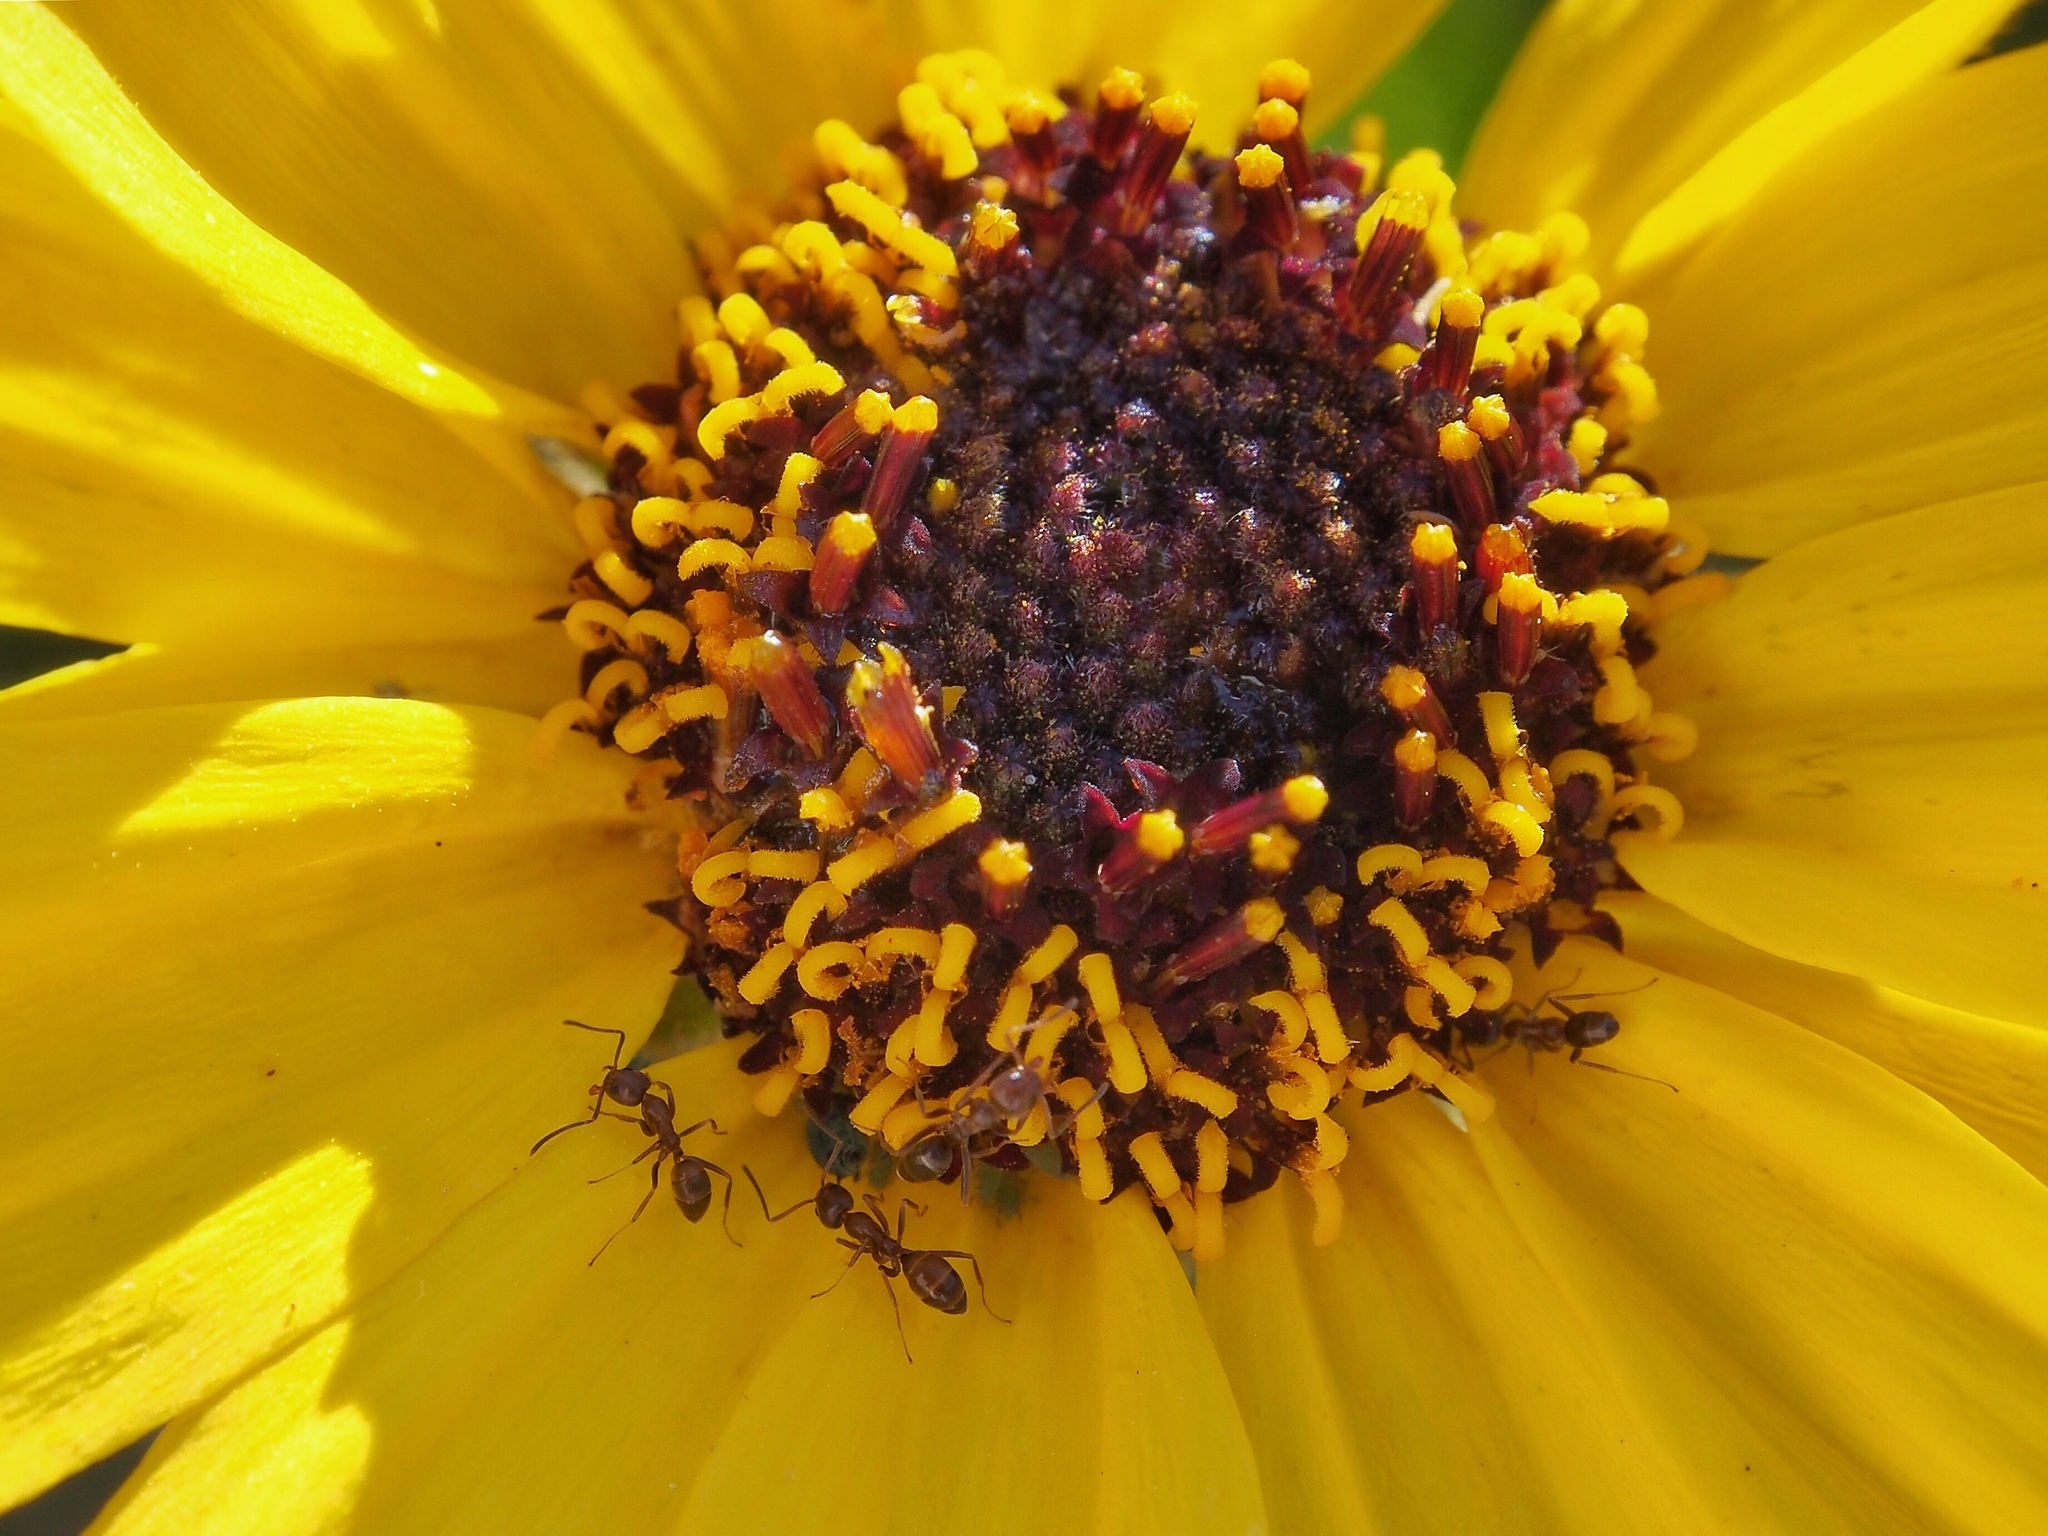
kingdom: Animalia
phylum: Arthropoda
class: Insecta
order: Hymenoptera
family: Formicidae
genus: Linepithema
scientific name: Linepithema humile
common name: Argentine ant
